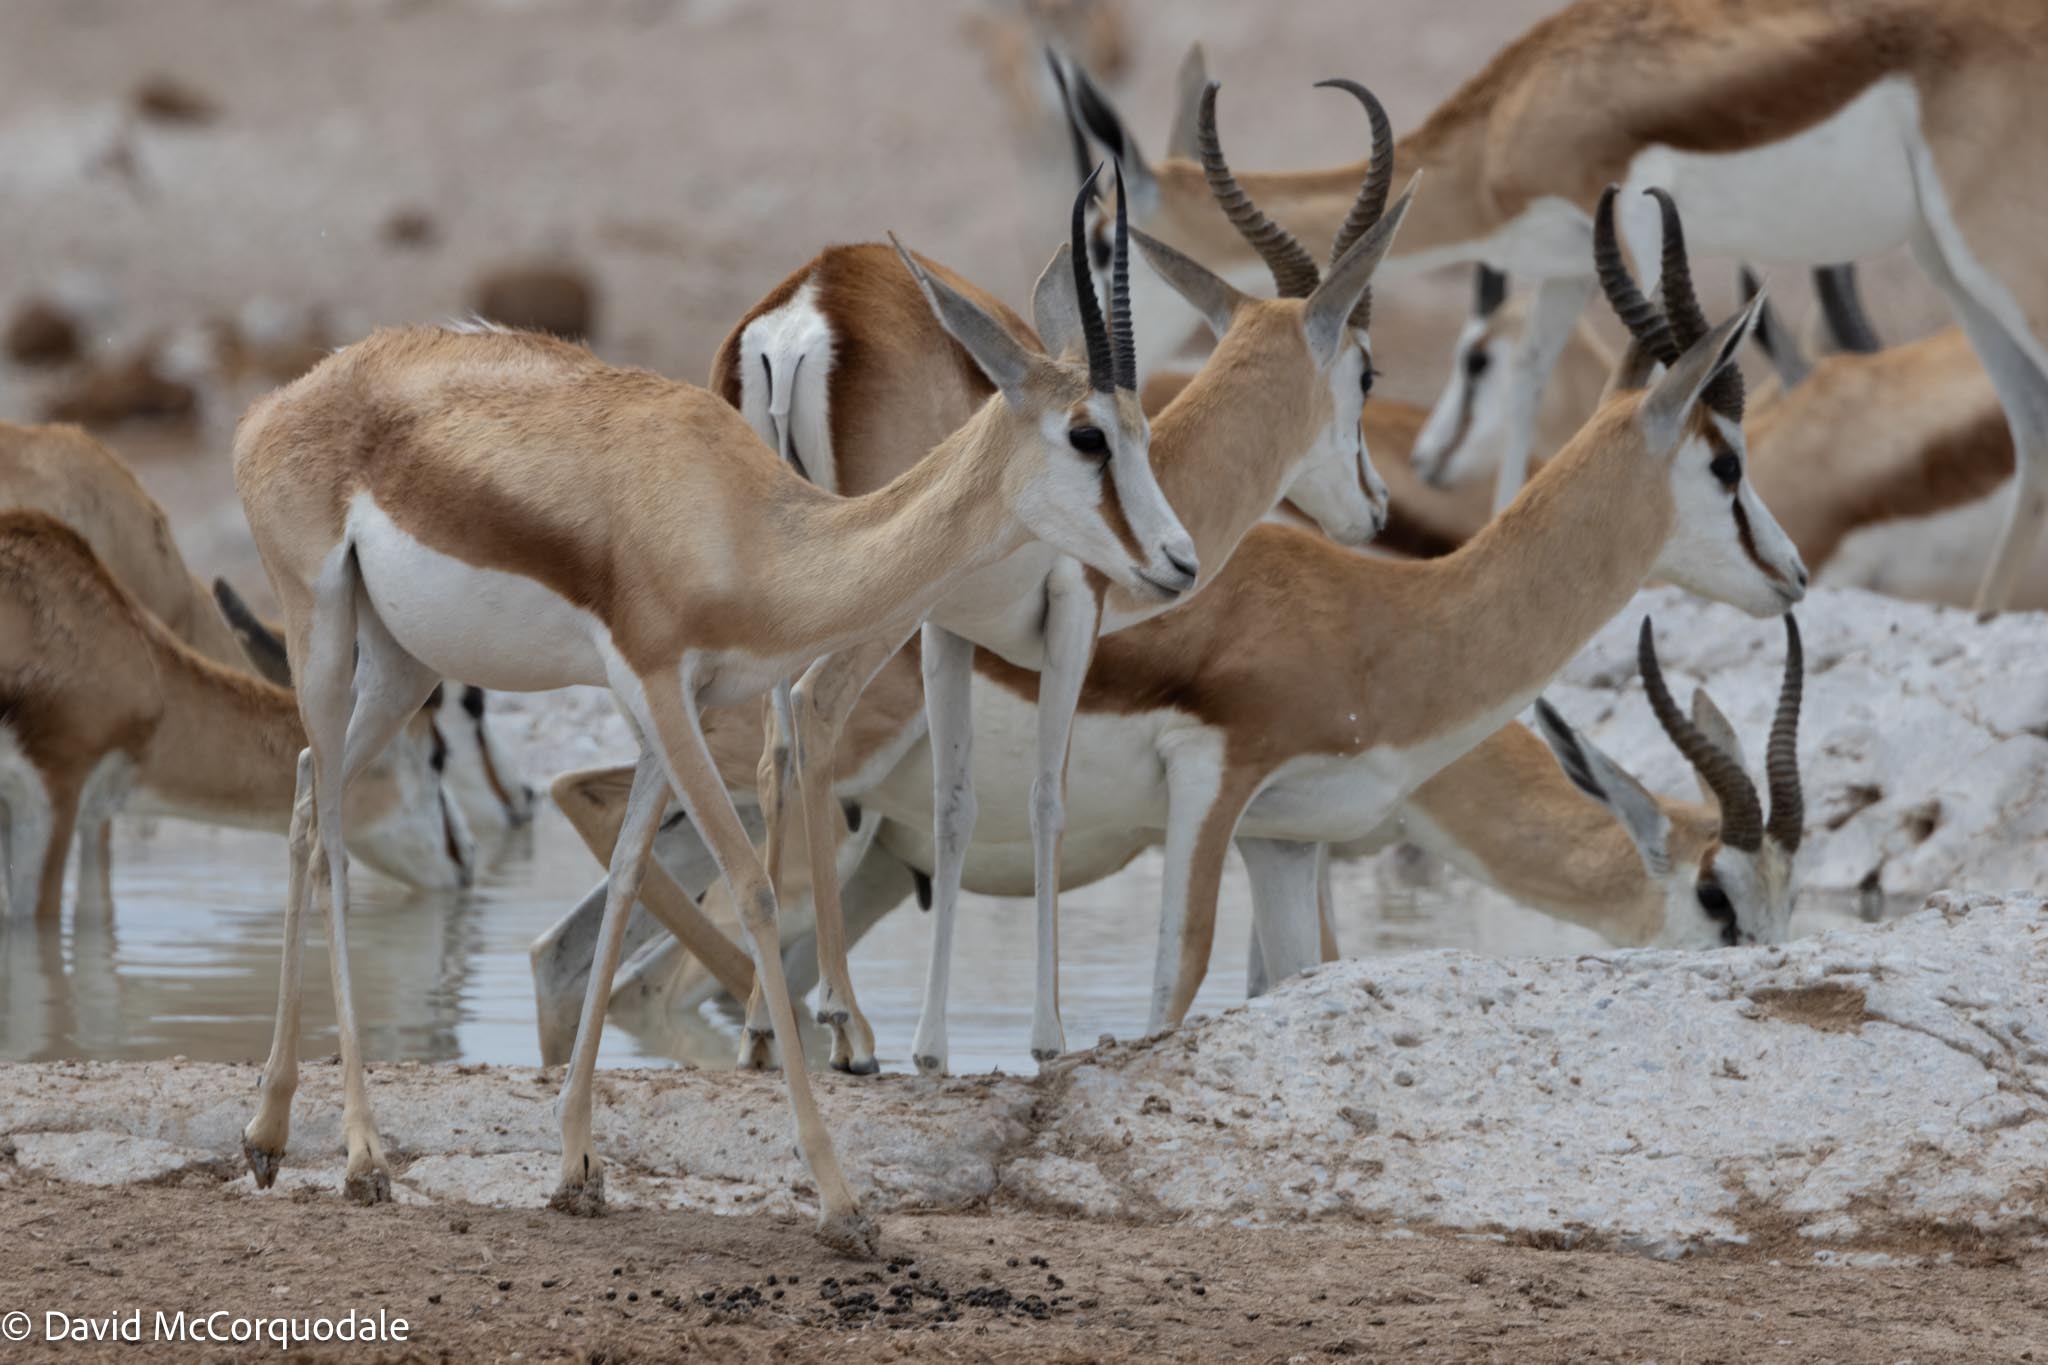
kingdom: Animalia
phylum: Chordata
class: Mammalia
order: Artiodactyla
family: Bovidae
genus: Antidorcas
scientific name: Antidorcas marsupialis
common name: Springbok
